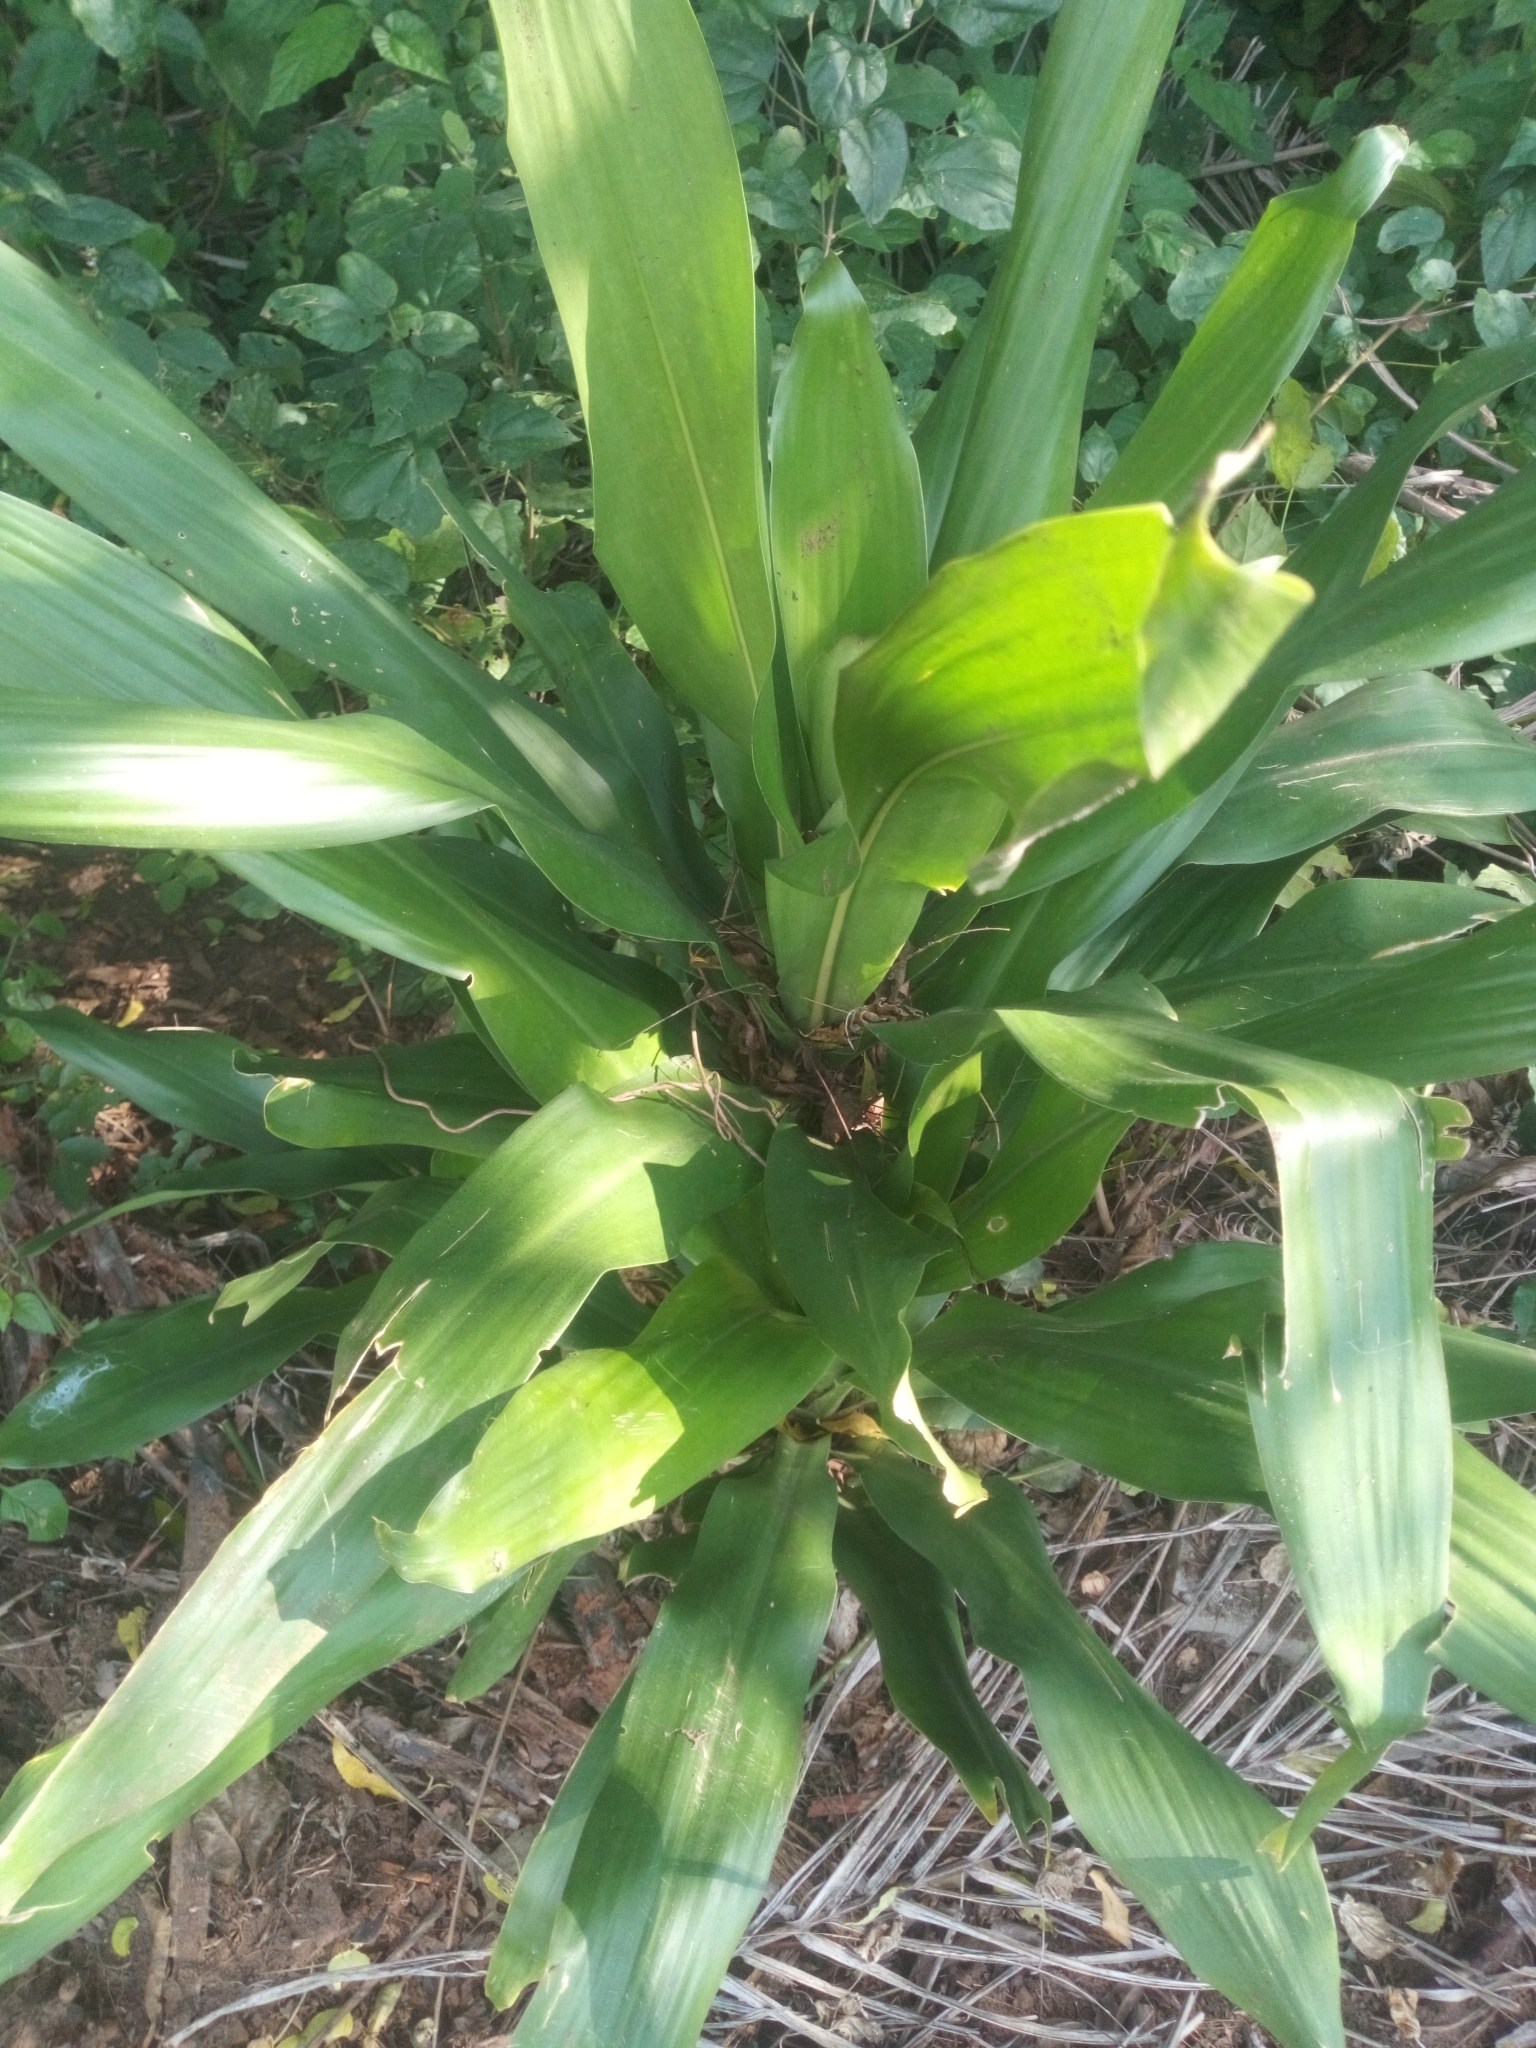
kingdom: Plantae
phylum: Tracheophyta
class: Liliopsida
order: Asparagales
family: Asparagaceae
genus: Dracaena
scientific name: Dracaena fragrans
